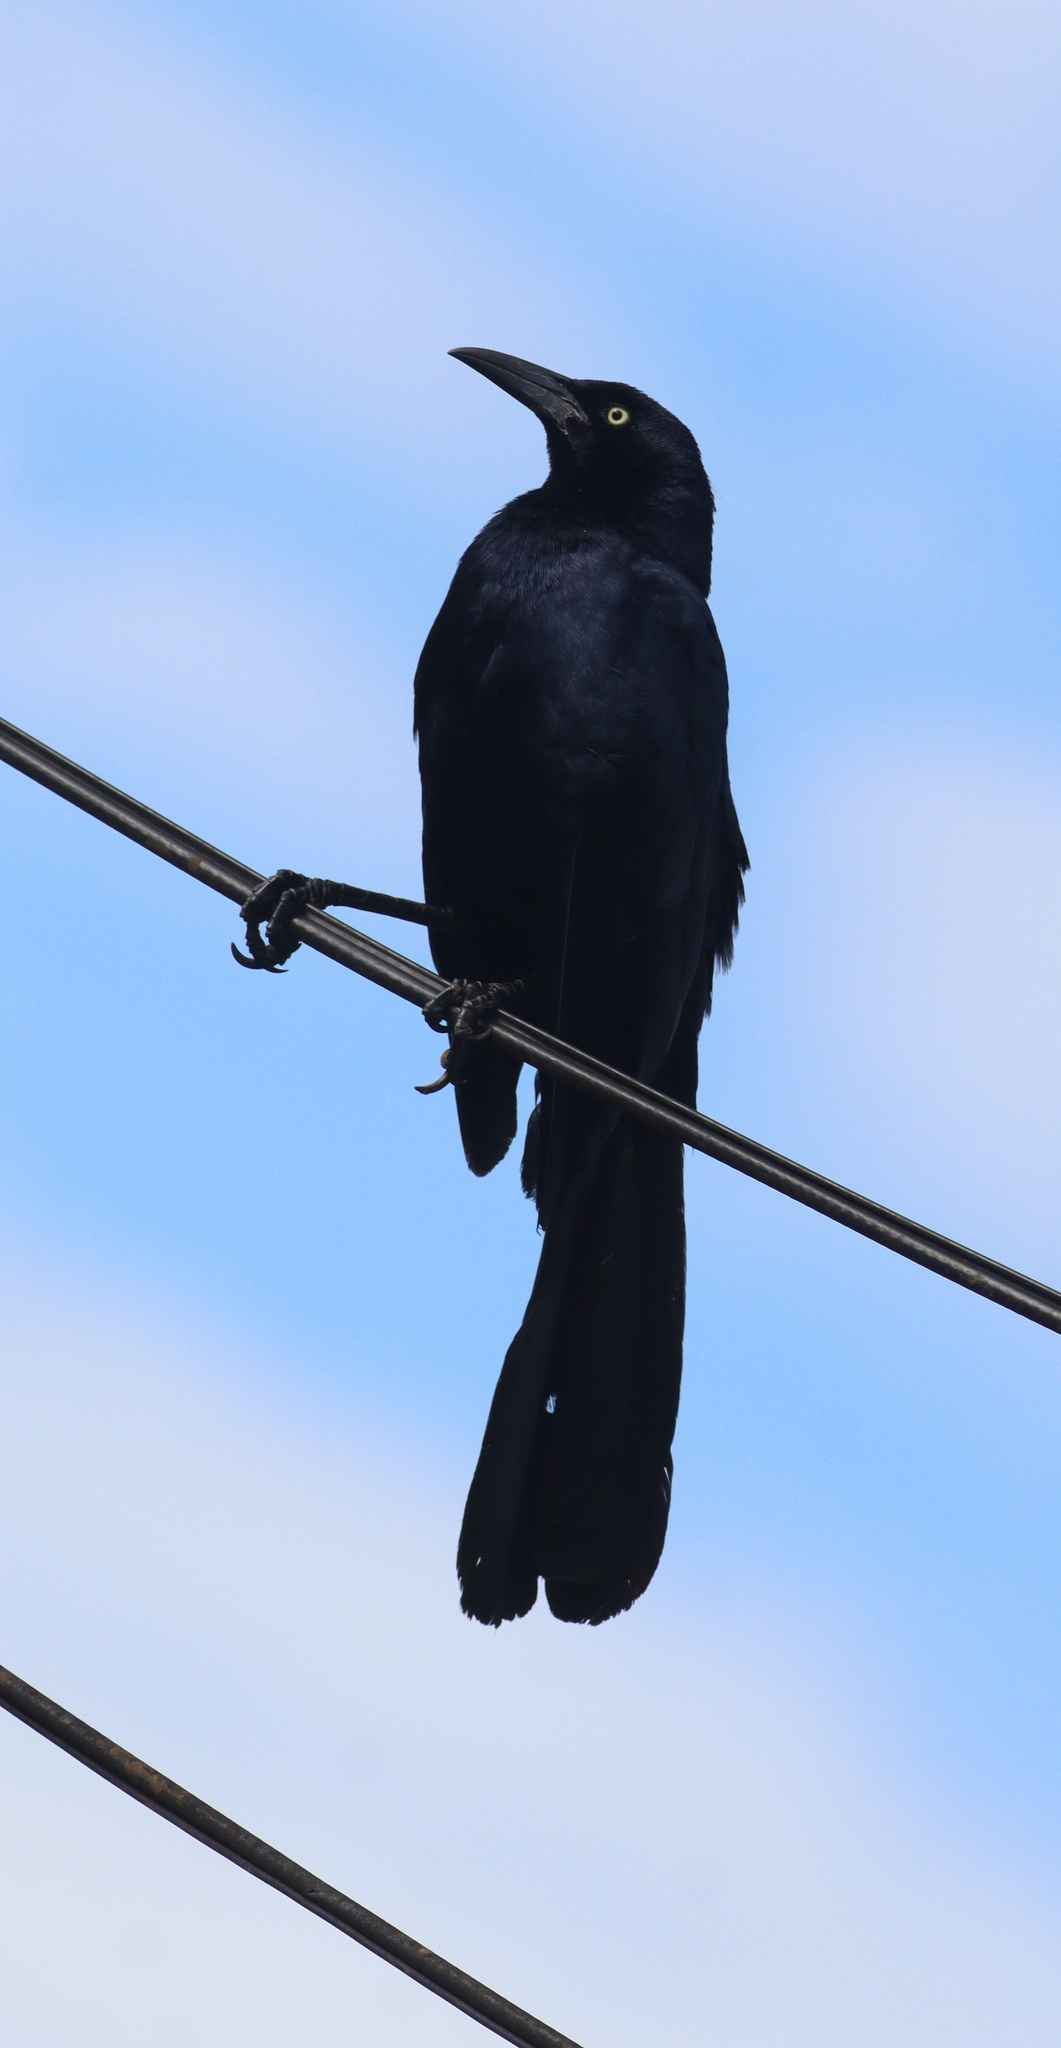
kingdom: Animalia
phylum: Chordata
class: Aves
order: Passeriformes
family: Icteridae
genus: Quiscalus
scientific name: Quiscalus mexicanus
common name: Great-tailed grackle
